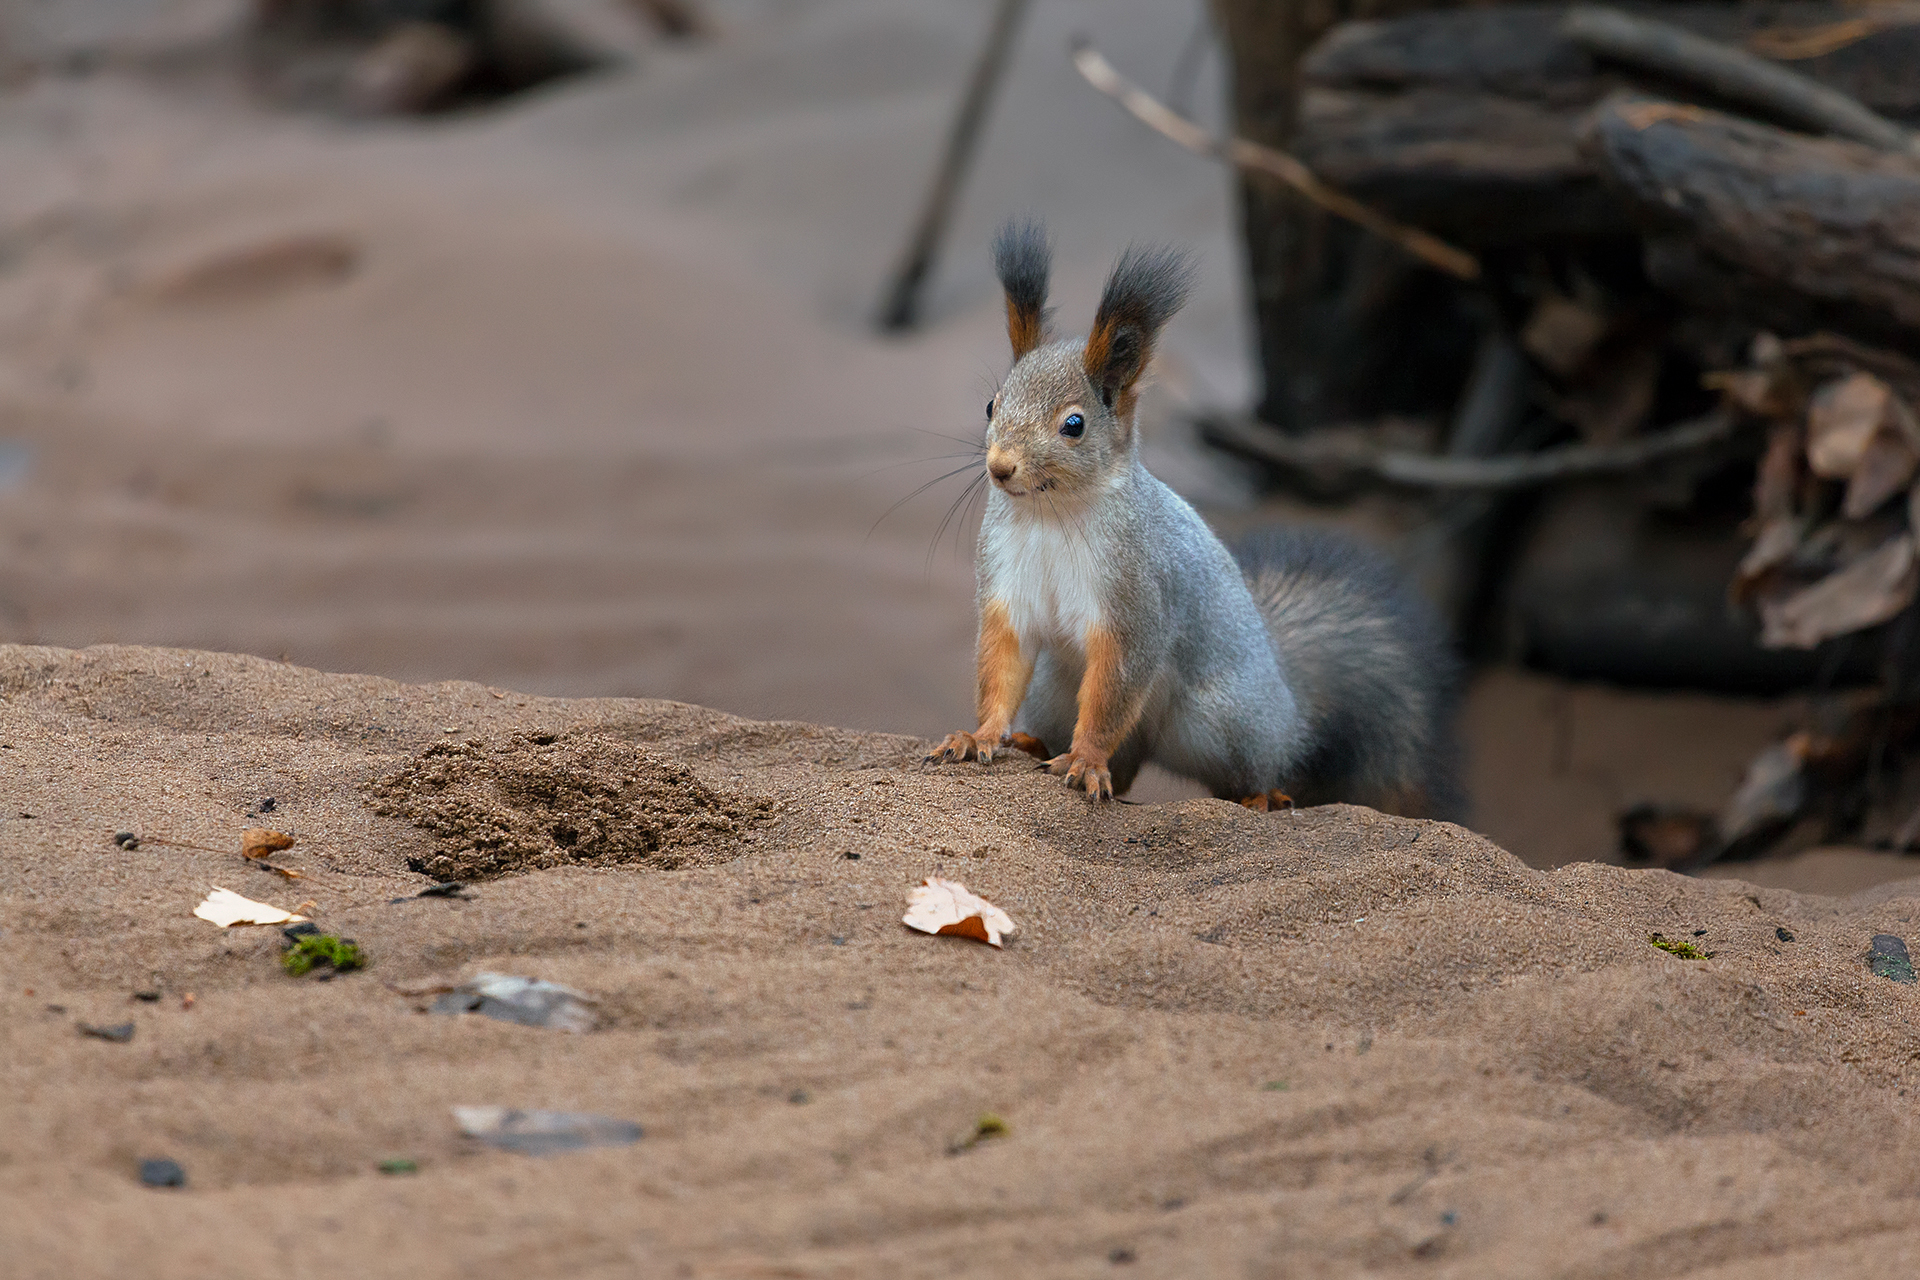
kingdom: Animalia
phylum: Chordata
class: Mammalia
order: Rodentia
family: Sciuridae
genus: Sciurus
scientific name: Sciurus vulgaris
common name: Eurasian red squirrel
